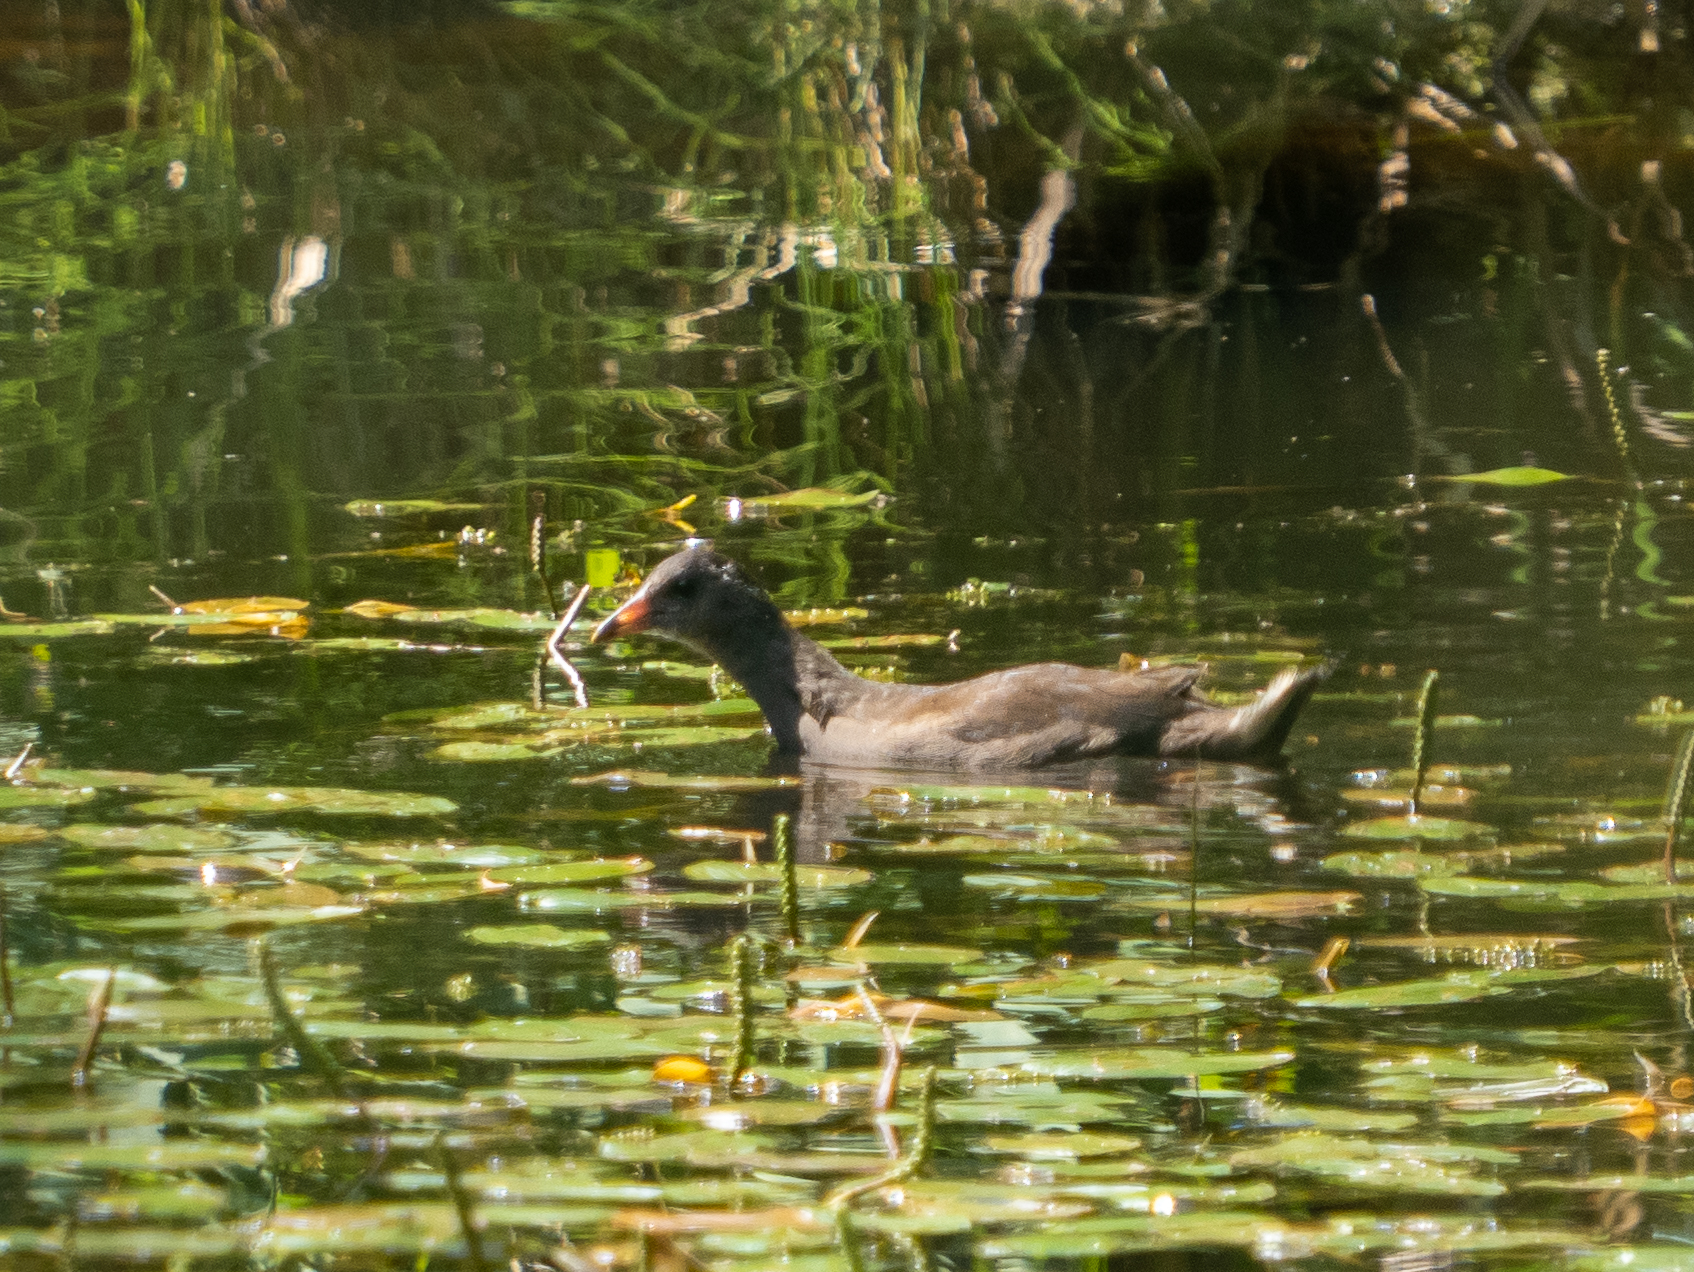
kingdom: Animalia
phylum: Chordata
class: Aves
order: Gruiformes
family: Rallidae
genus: Gallinula
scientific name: Gallinula chloropus
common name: Common moorhen
